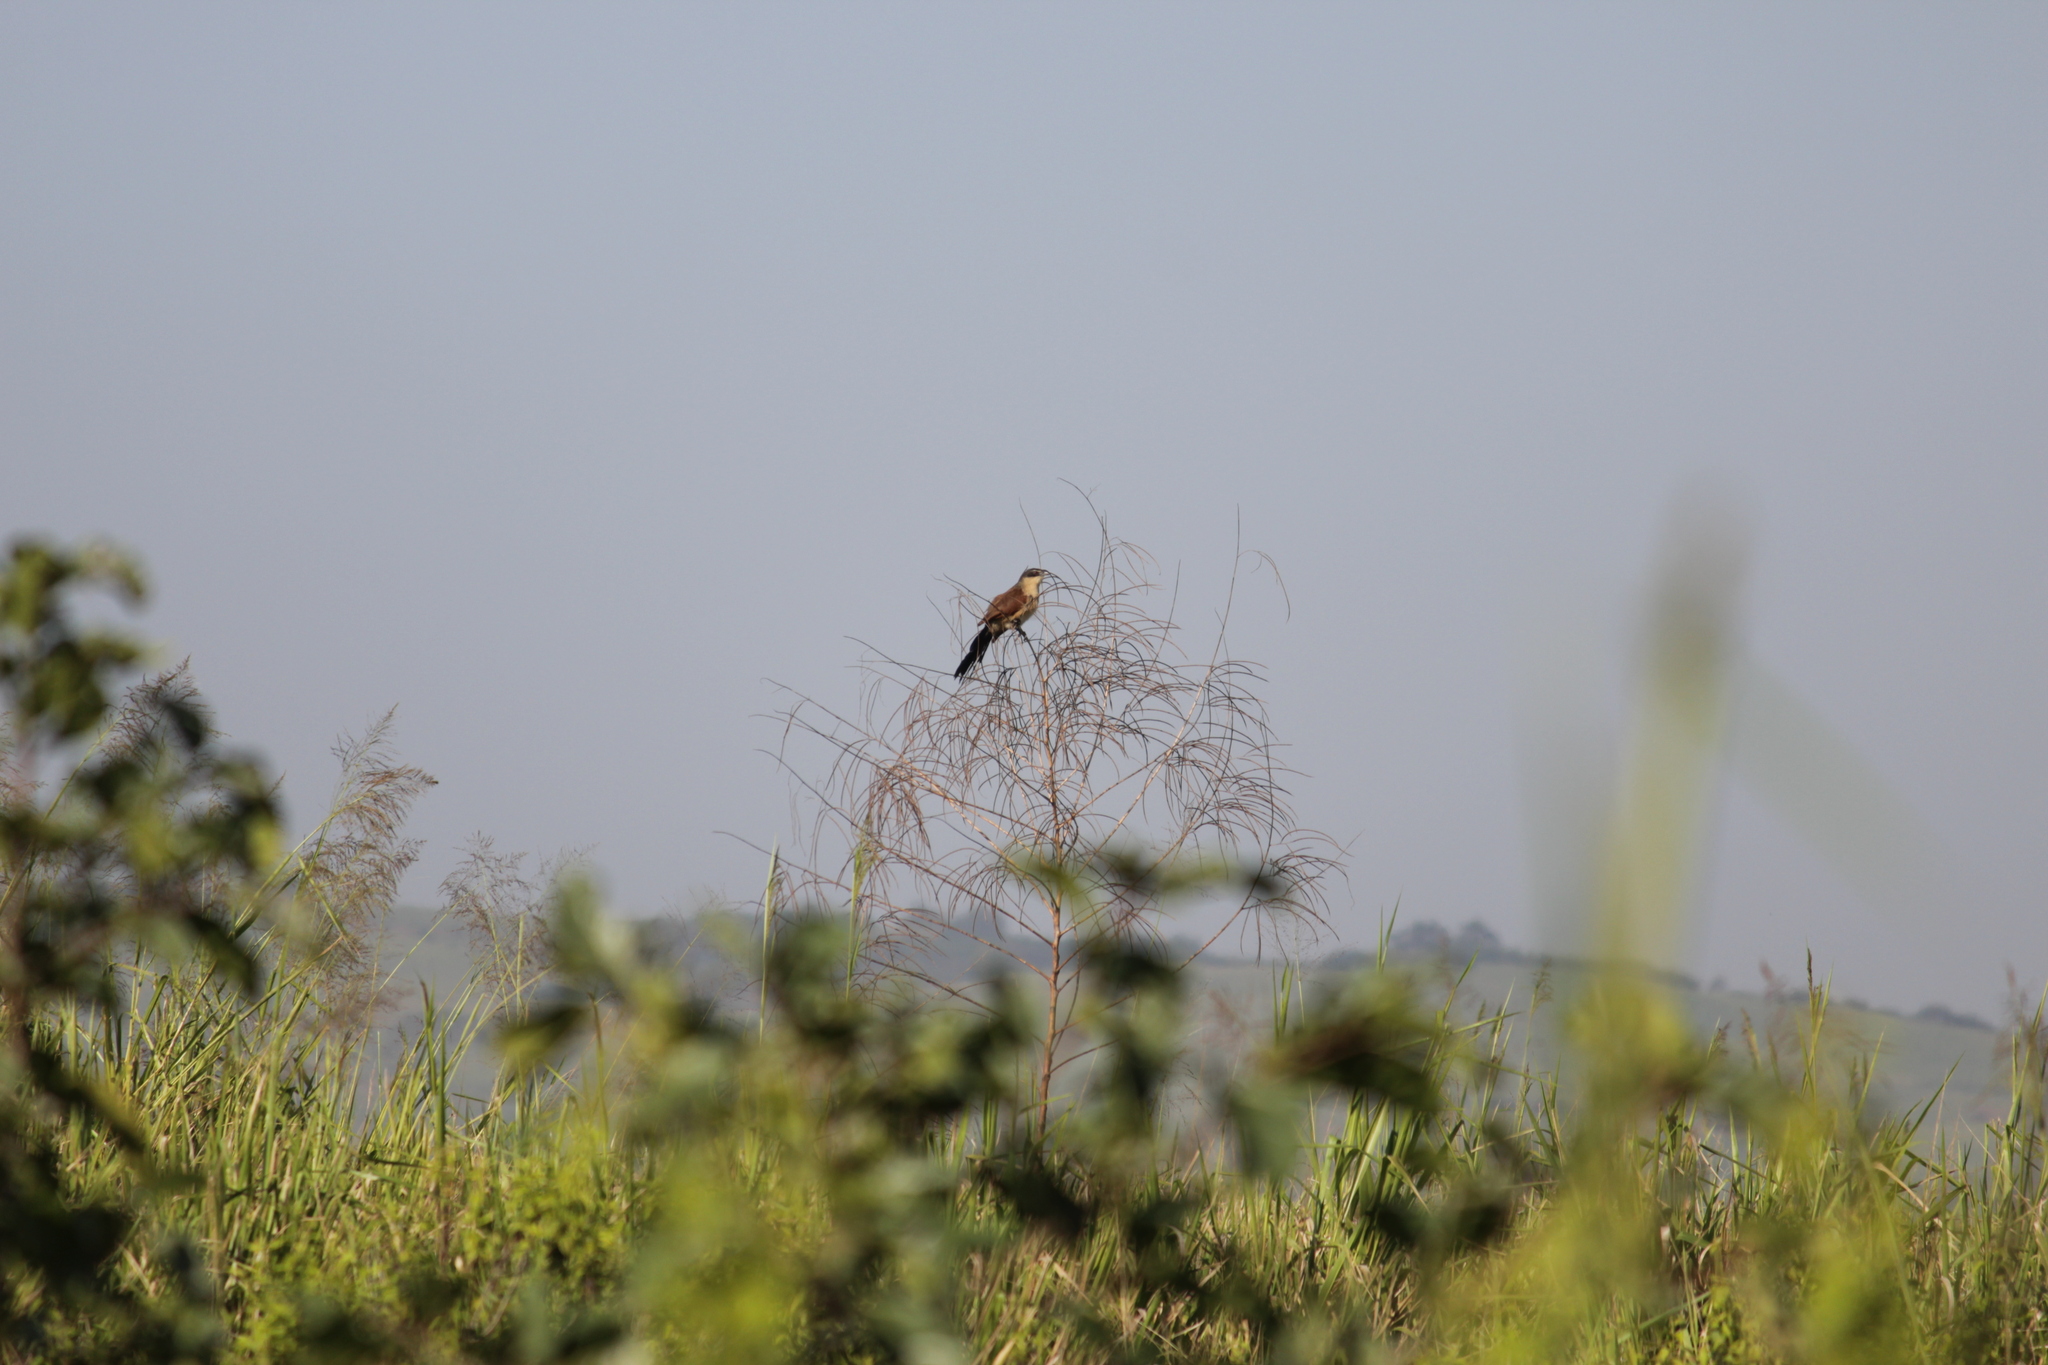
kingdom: Animalia
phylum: Chordata
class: Aves
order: Cuculiformes
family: Cuculidae
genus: Centropus
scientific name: Centropus superciliosus
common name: White-browed coucal
